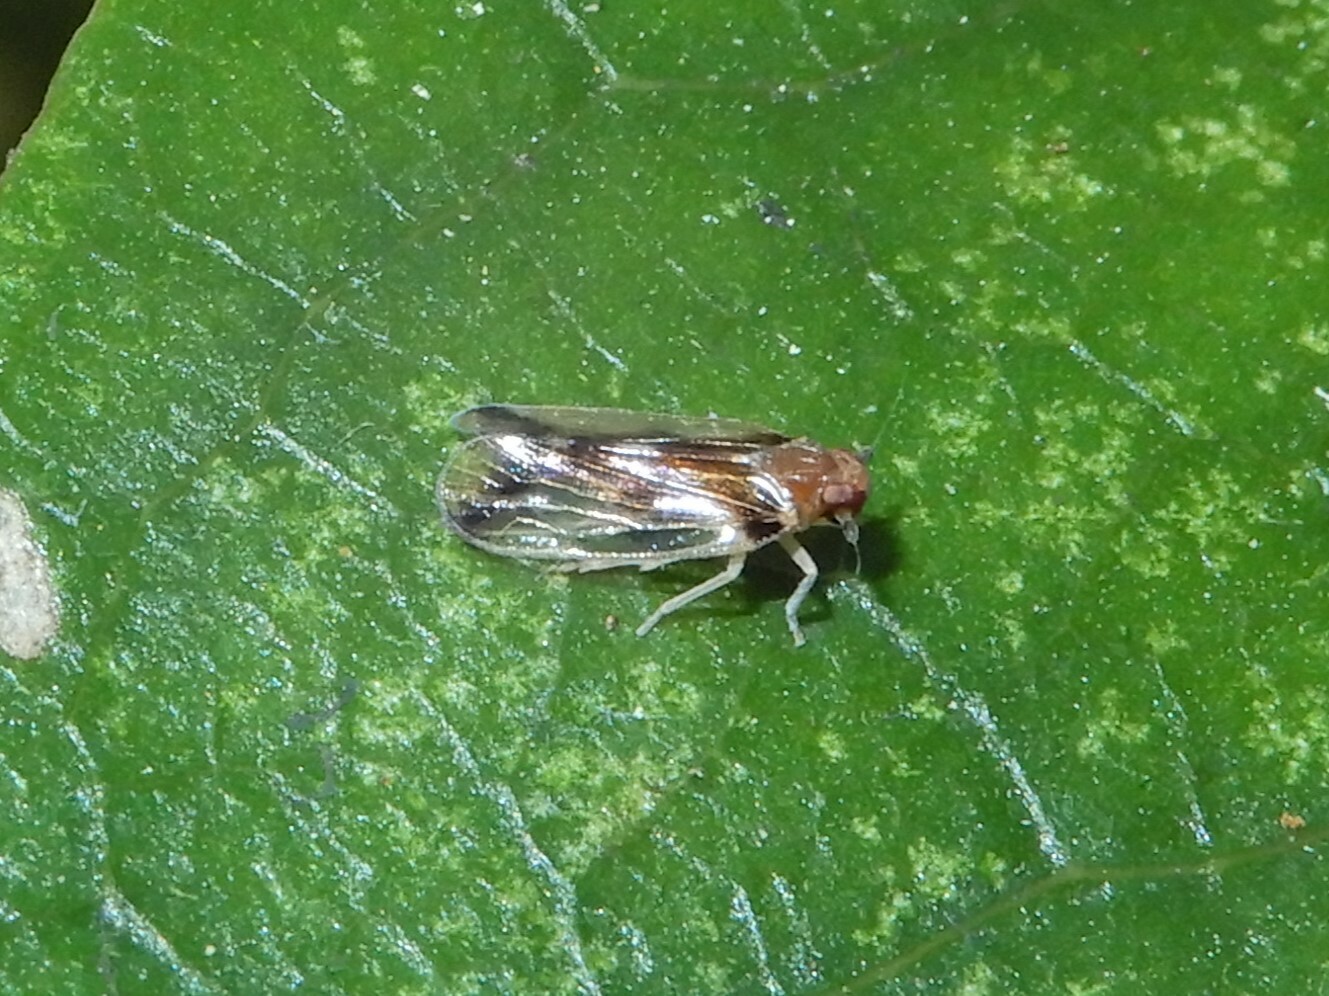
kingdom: Animalia
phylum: Arthropoda
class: Insecta
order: Hemiptera
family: Cixiidae
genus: Tiriteana
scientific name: Tiriteana clarkei
